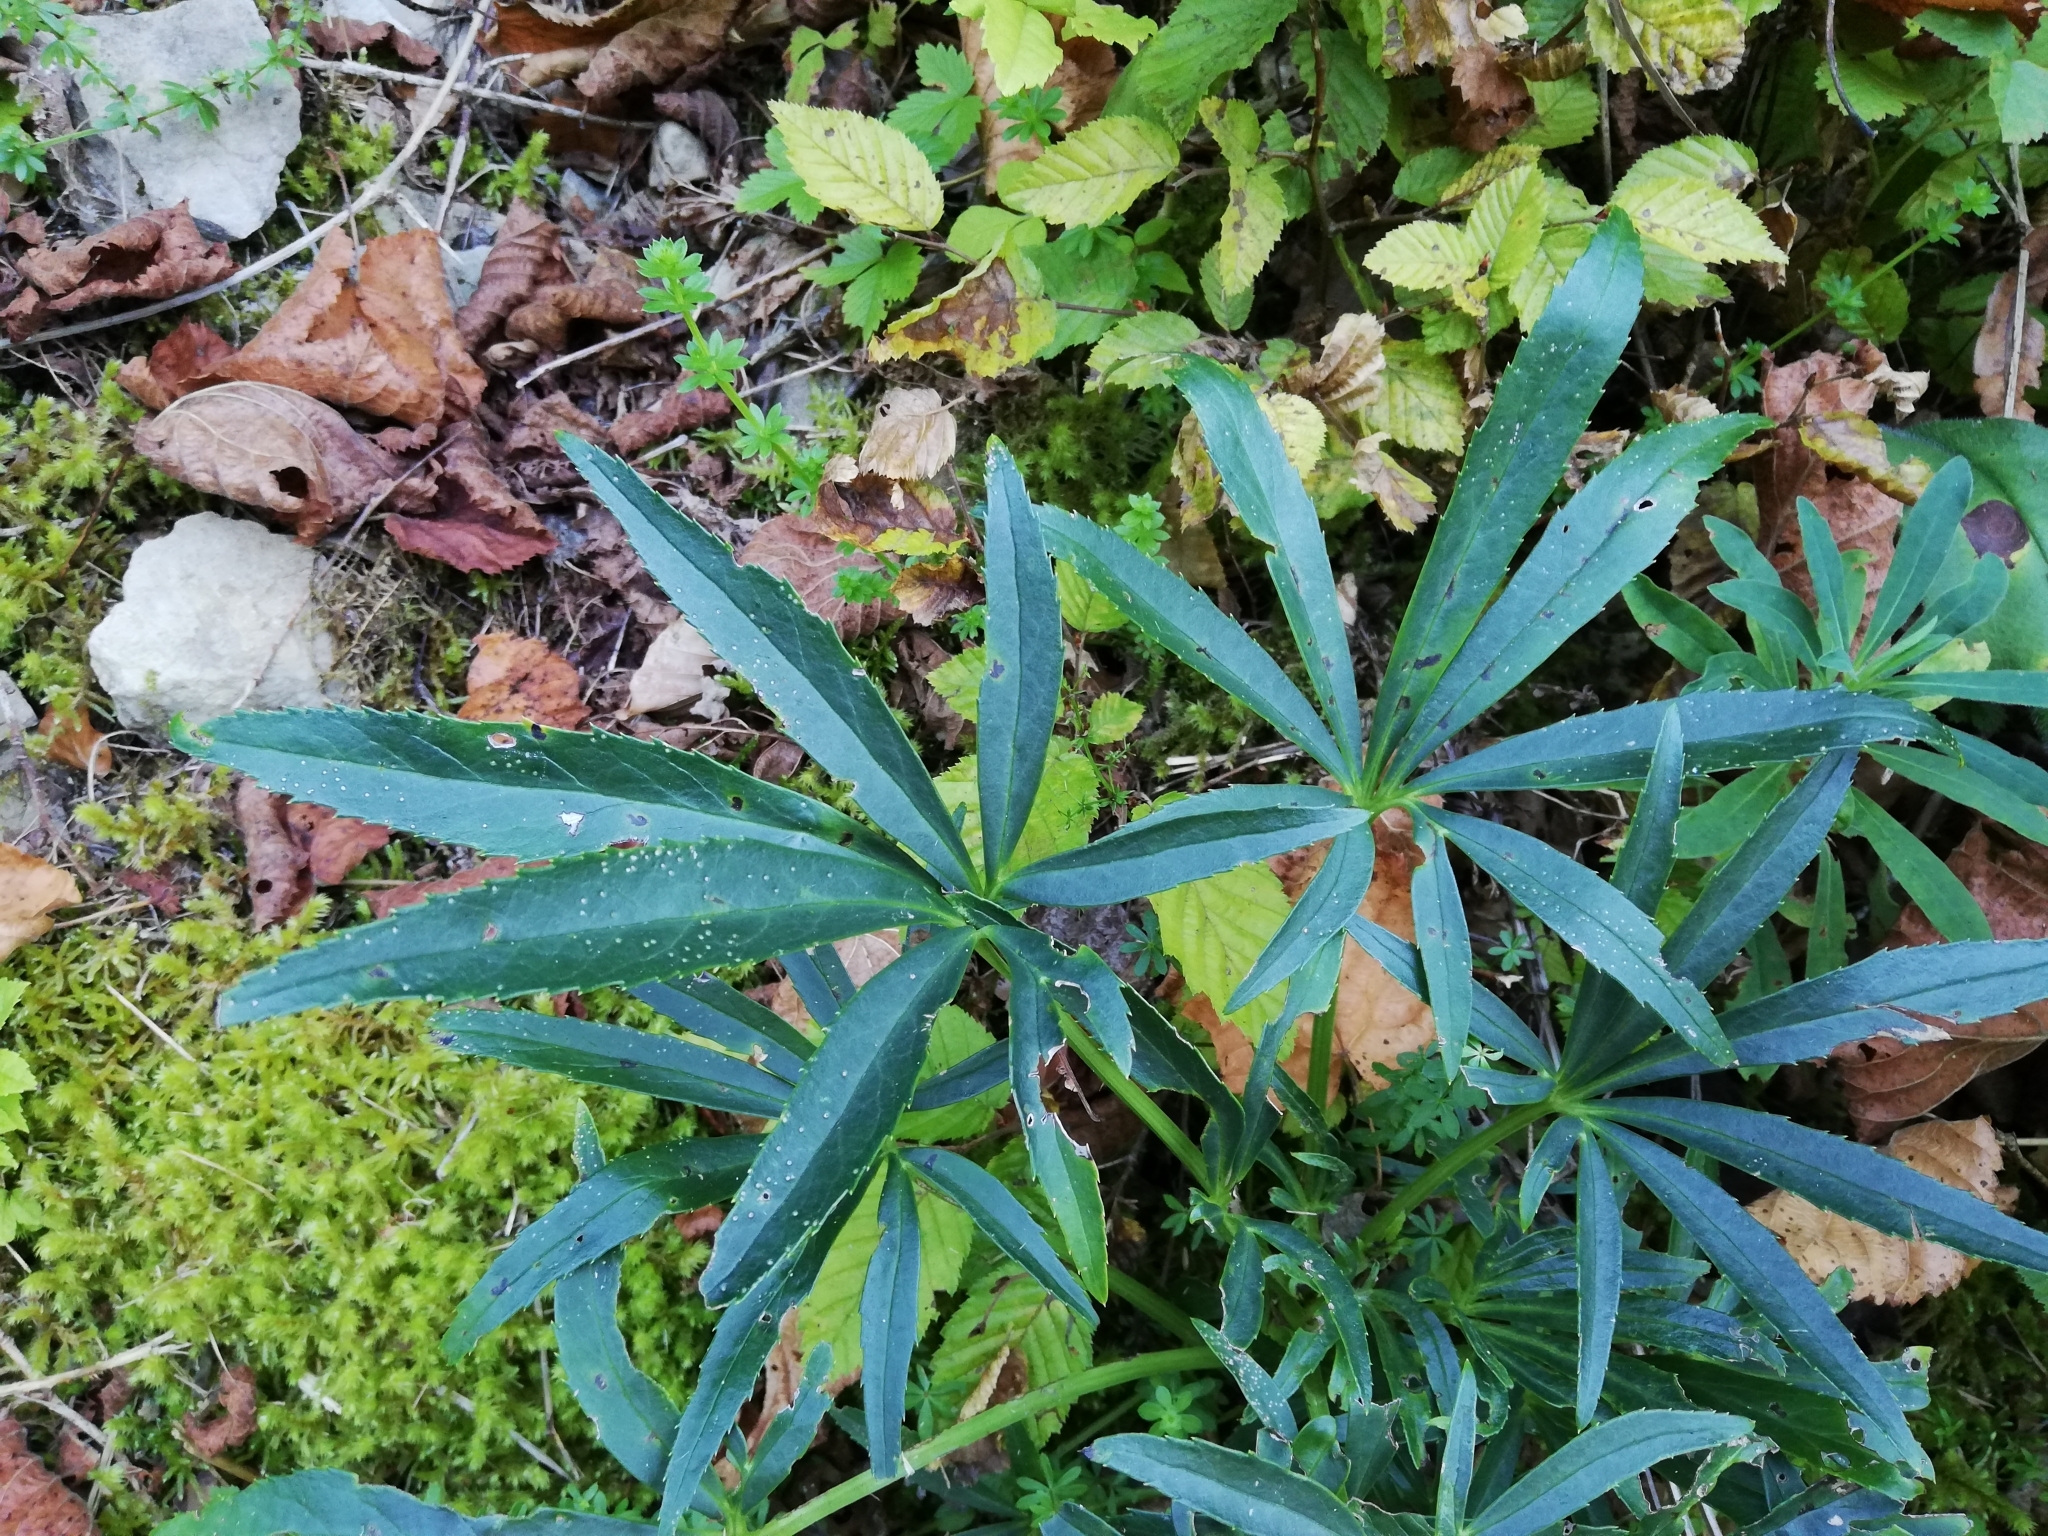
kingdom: Plantae
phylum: Tracheophyta
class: Magnoliopsida
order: Ranunculales
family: Ranunculaceae
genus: Helleborus
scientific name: Helleborus foetidus
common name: Stinking hellebore
